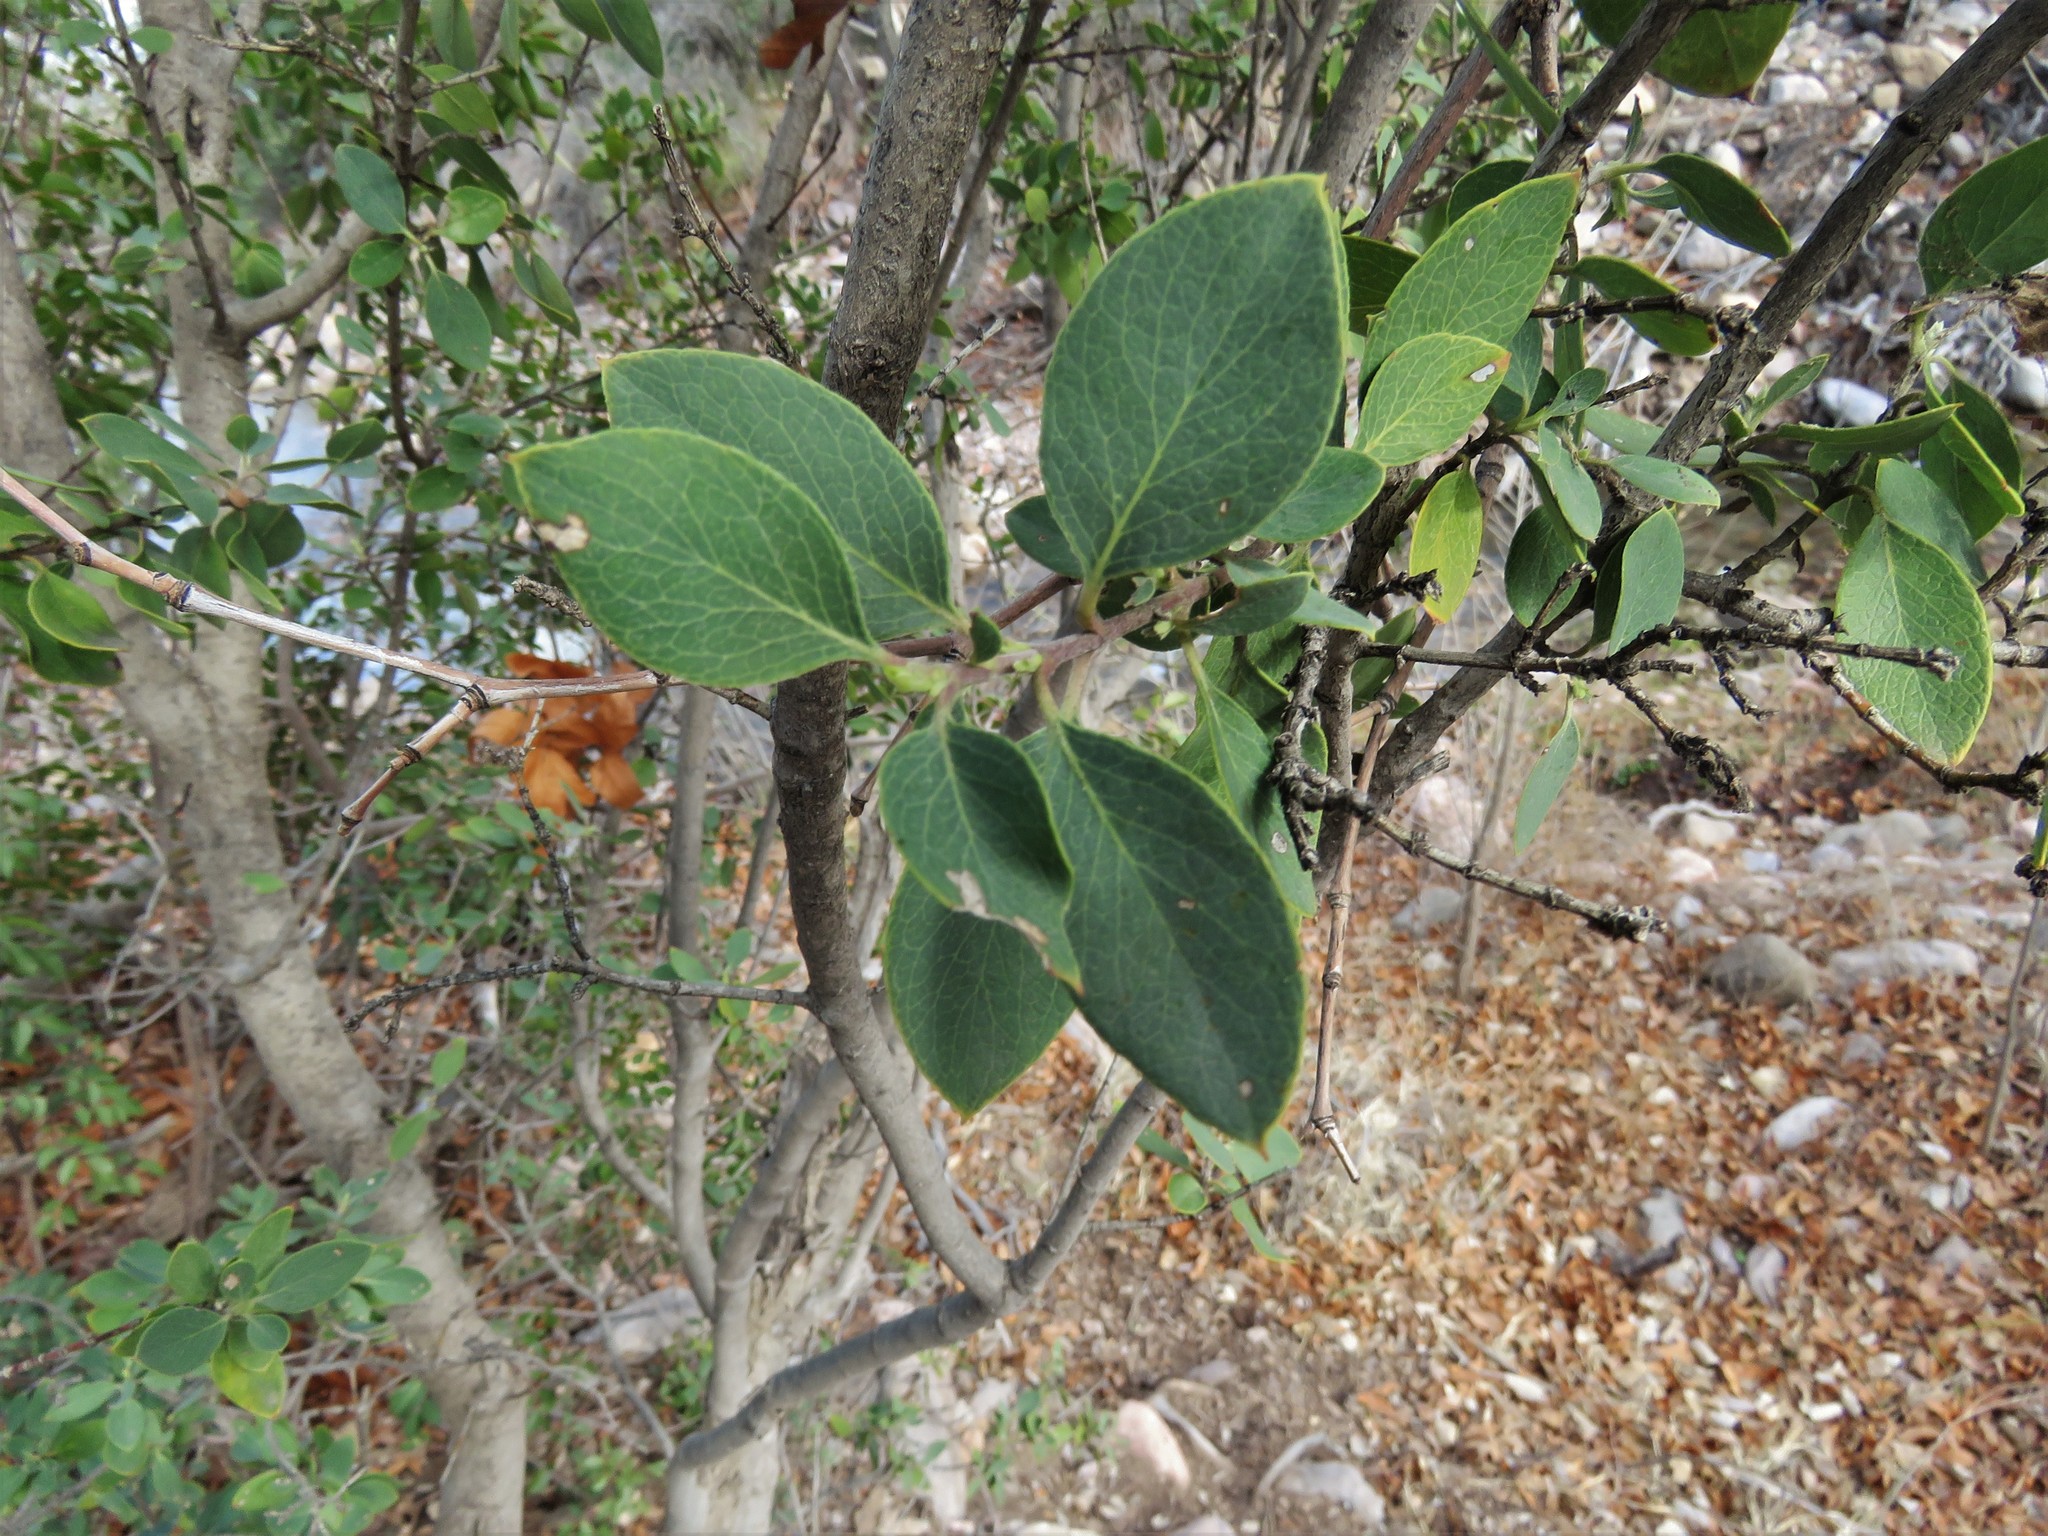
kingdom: Plantae
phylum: Tracheophyta
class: Magnoliopsida
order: Garryales
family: Garryaceae
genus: Garrya
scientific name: Garrya wrightii
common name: Wright's silktassel
